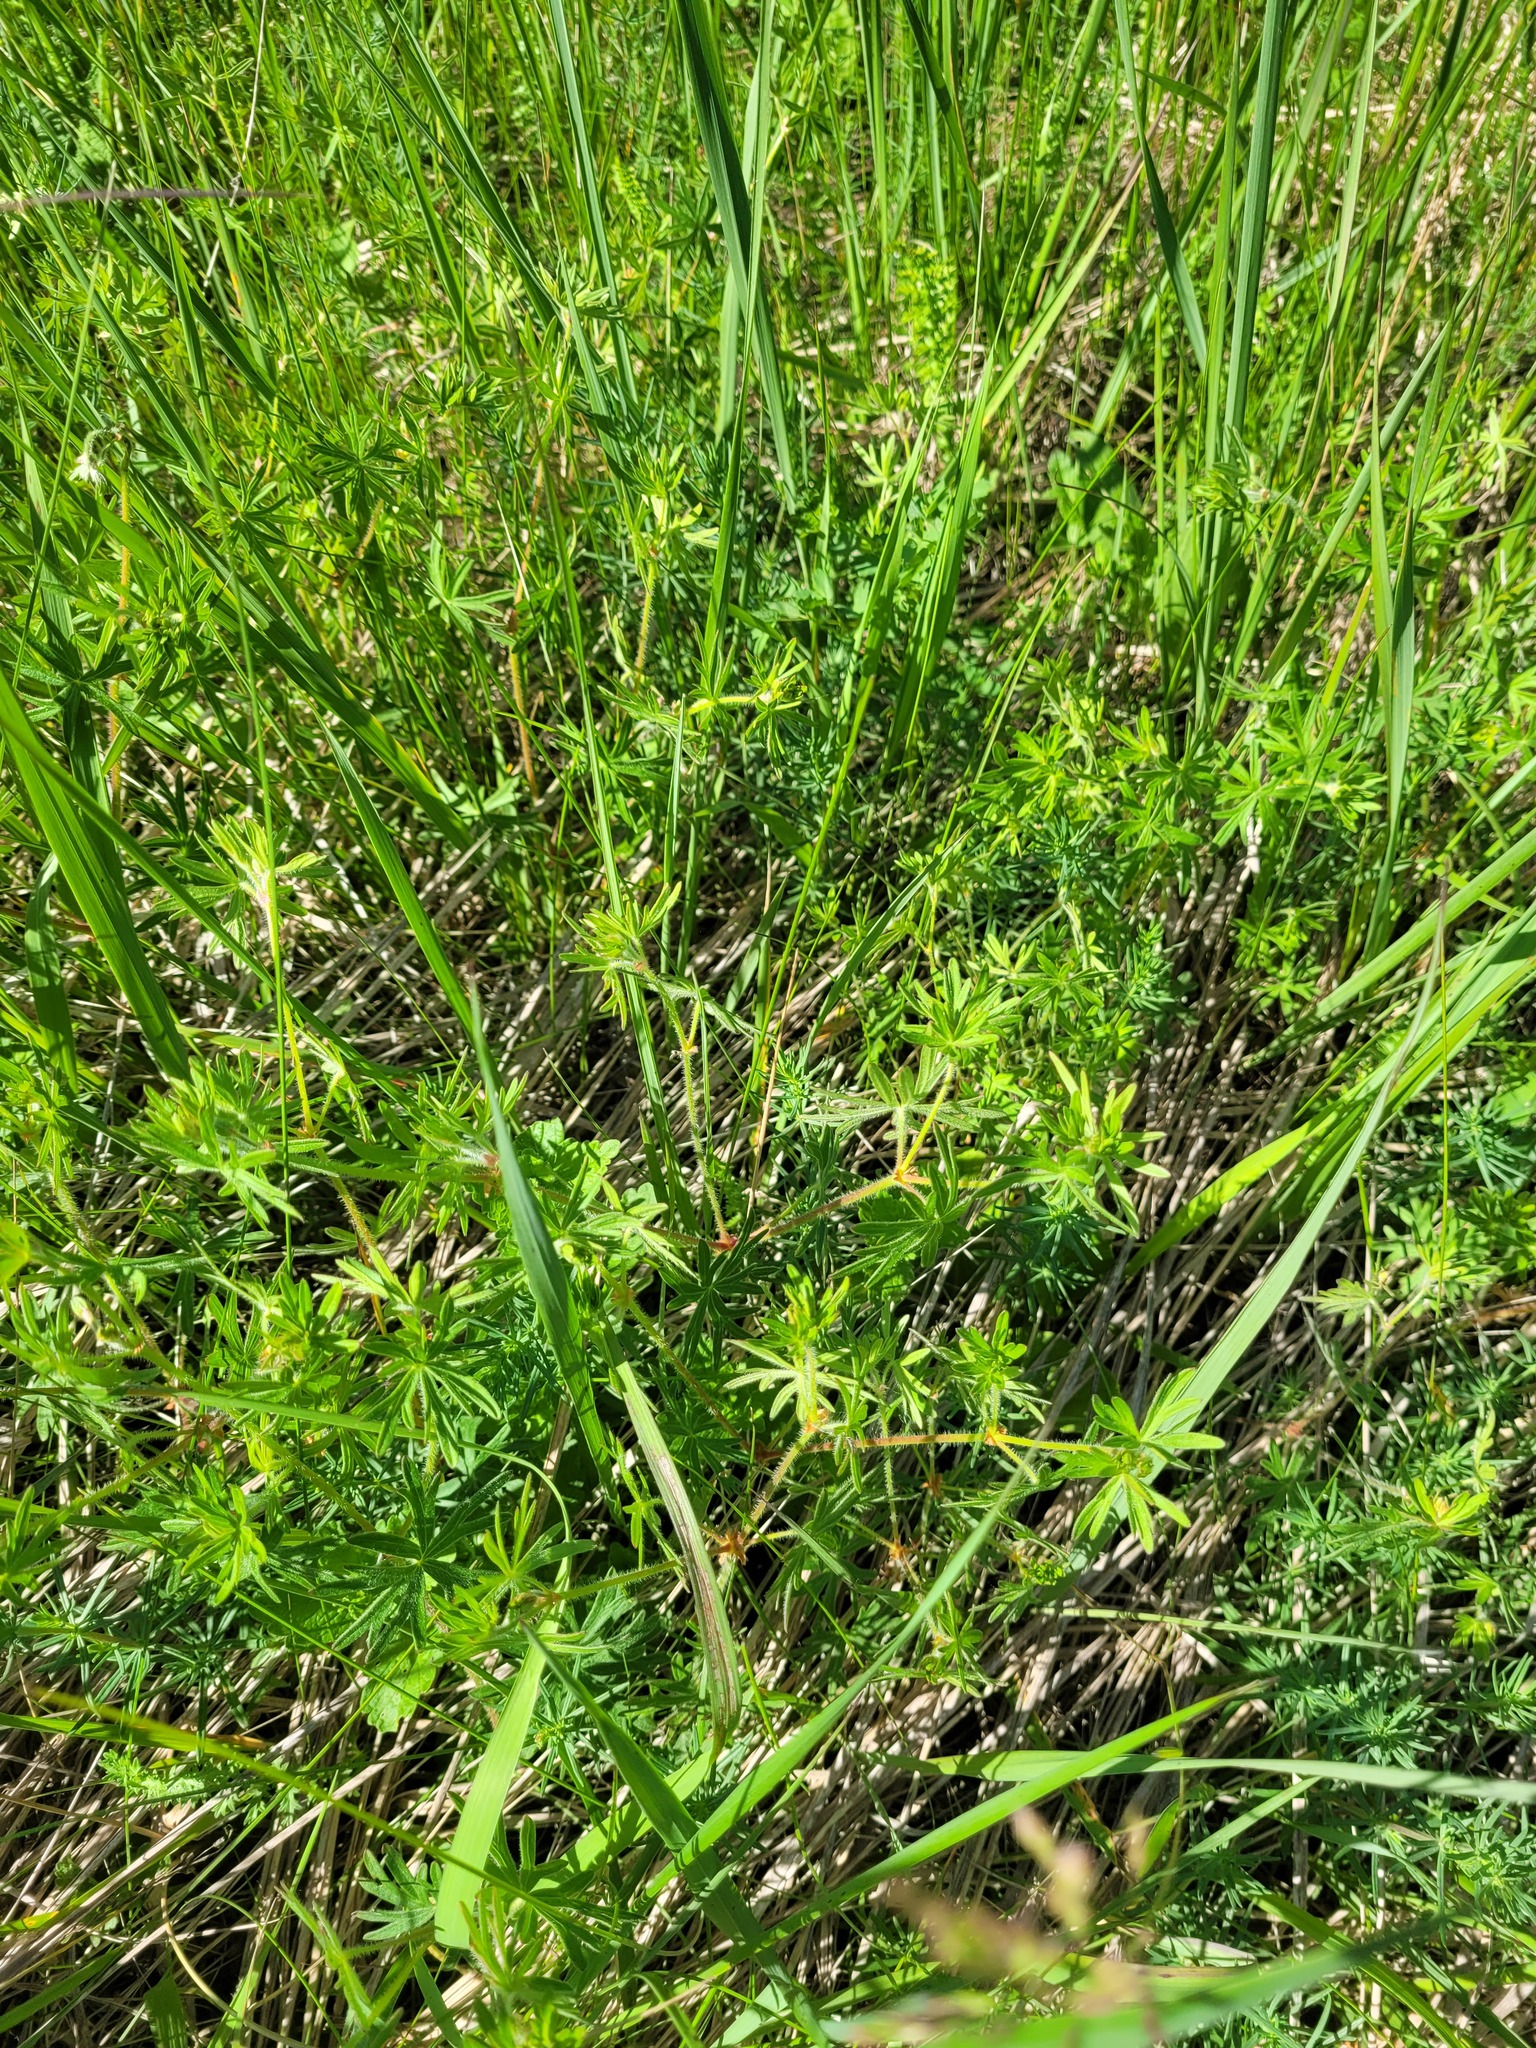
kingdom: Plantae
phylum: Tracheophyta
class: Magnoliopsida
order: Geraniales
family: Geraniaceae
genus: Geranium
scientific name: Geranium sanguineum
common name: Bloody crane's-bill
